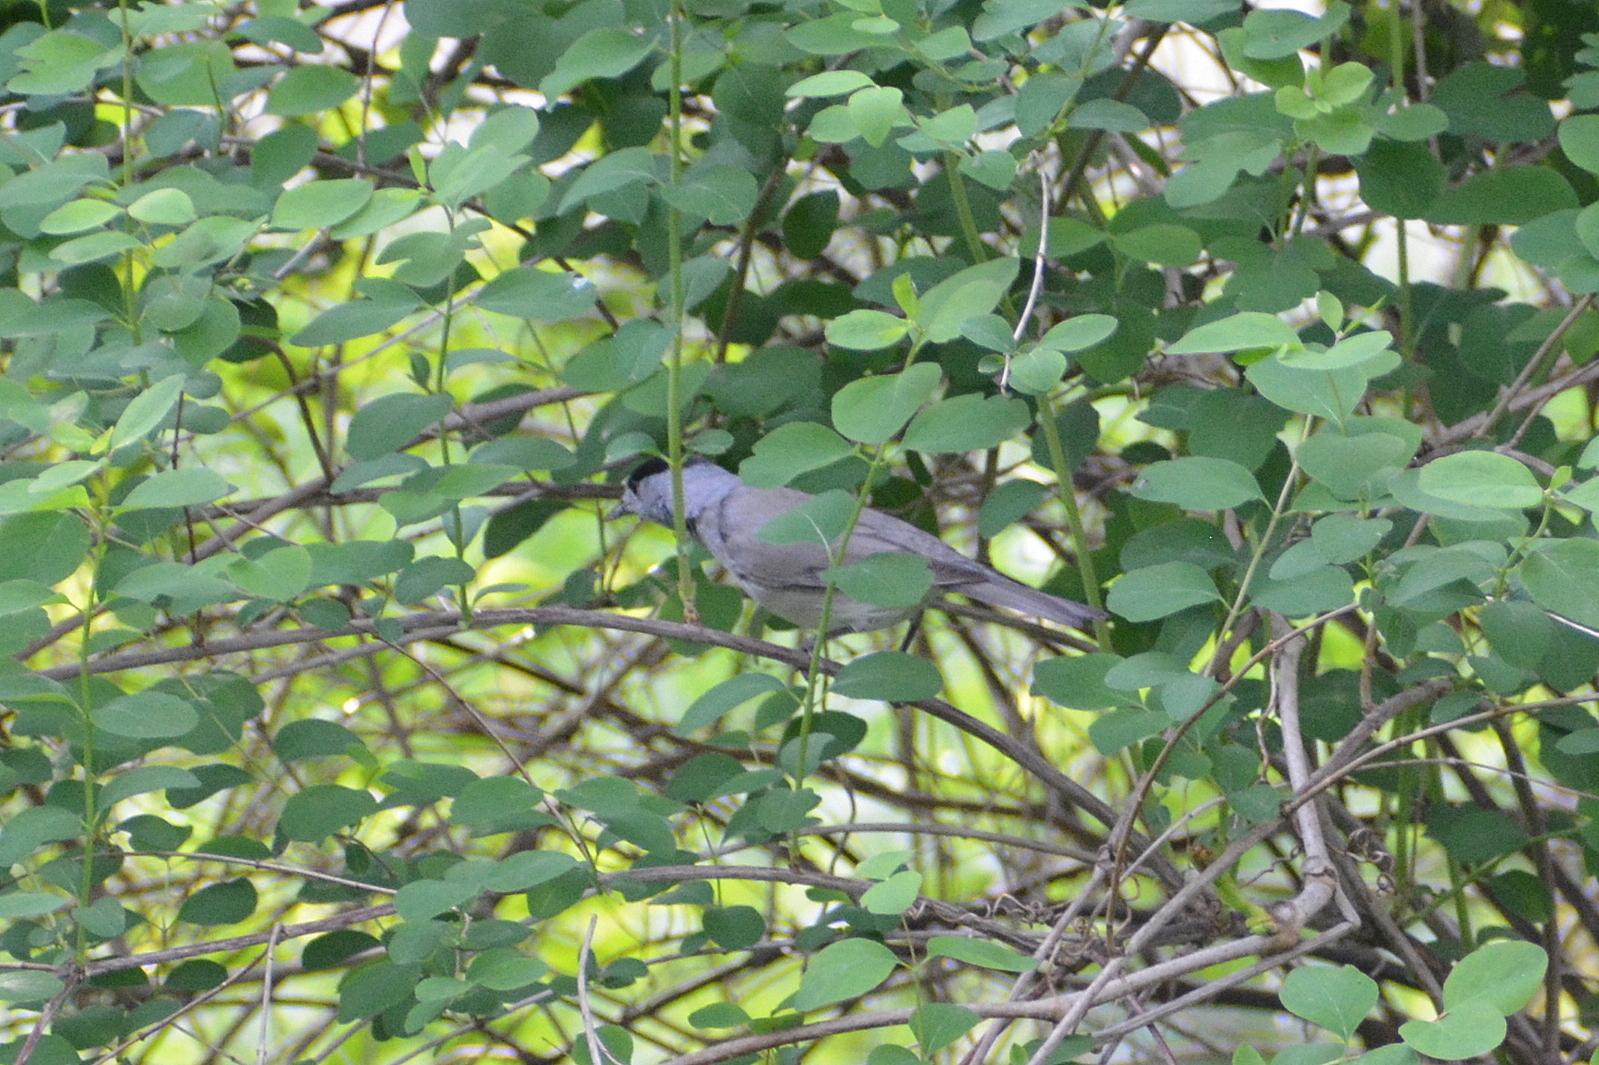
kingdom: Animalia
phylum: Chordata
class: Aves
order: Passeriformes
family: Sylviidae
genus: Sylvia
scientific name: Sylvia atricapilla
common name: Eurasian blackcap
